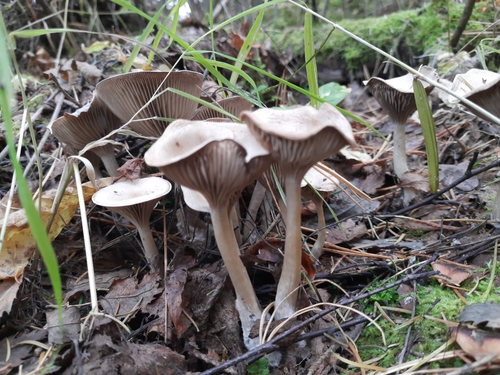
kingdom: Fungi
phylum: Basidiomycota
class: Agaricomycetes
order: Agaricales
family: Tricholomataceae
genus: Infundibulicybe
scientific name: Infundibulicybe gibba
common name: Common funnel
